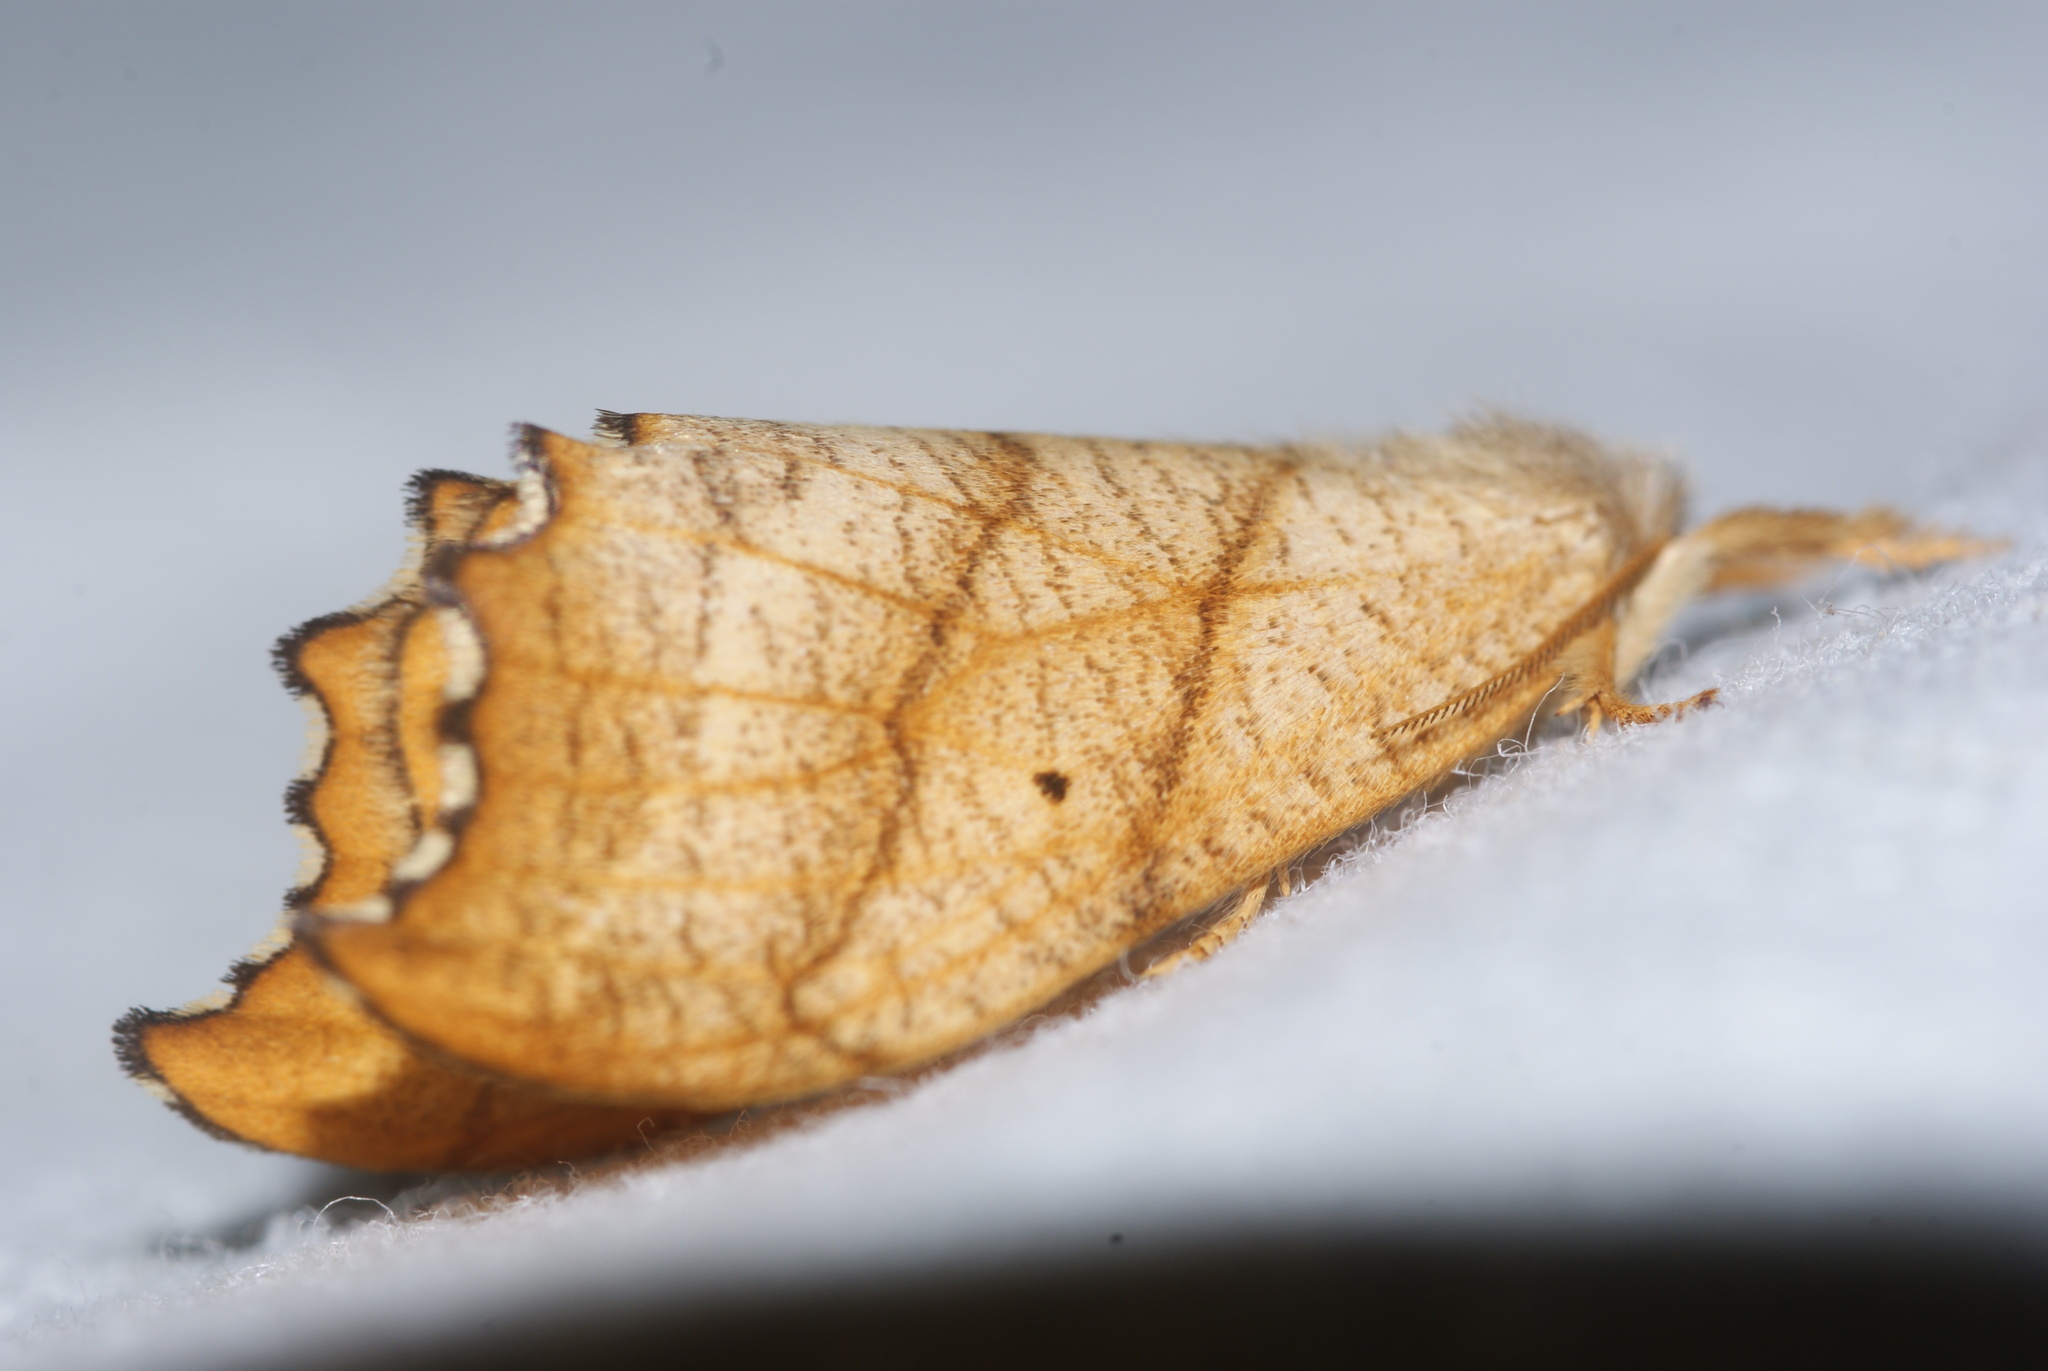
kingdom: Animalia
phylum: Arthropoda
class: Insecta
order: Lepidoptera
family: Drepanidae
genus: Falcaria
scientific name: Falcaria lacertinaria
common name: Scalloped hook-tip
